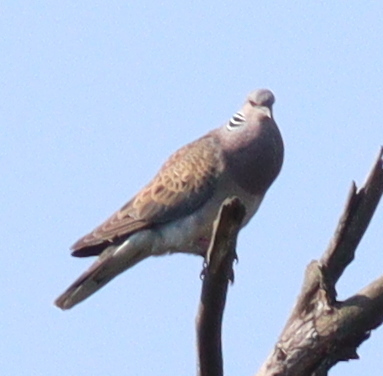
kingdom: Animalia
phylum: Chordata
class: Aves
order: Columbiformes
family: Columbidae
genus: Streptopelia
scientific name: Streptopelia turtur
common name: European turtle dove
